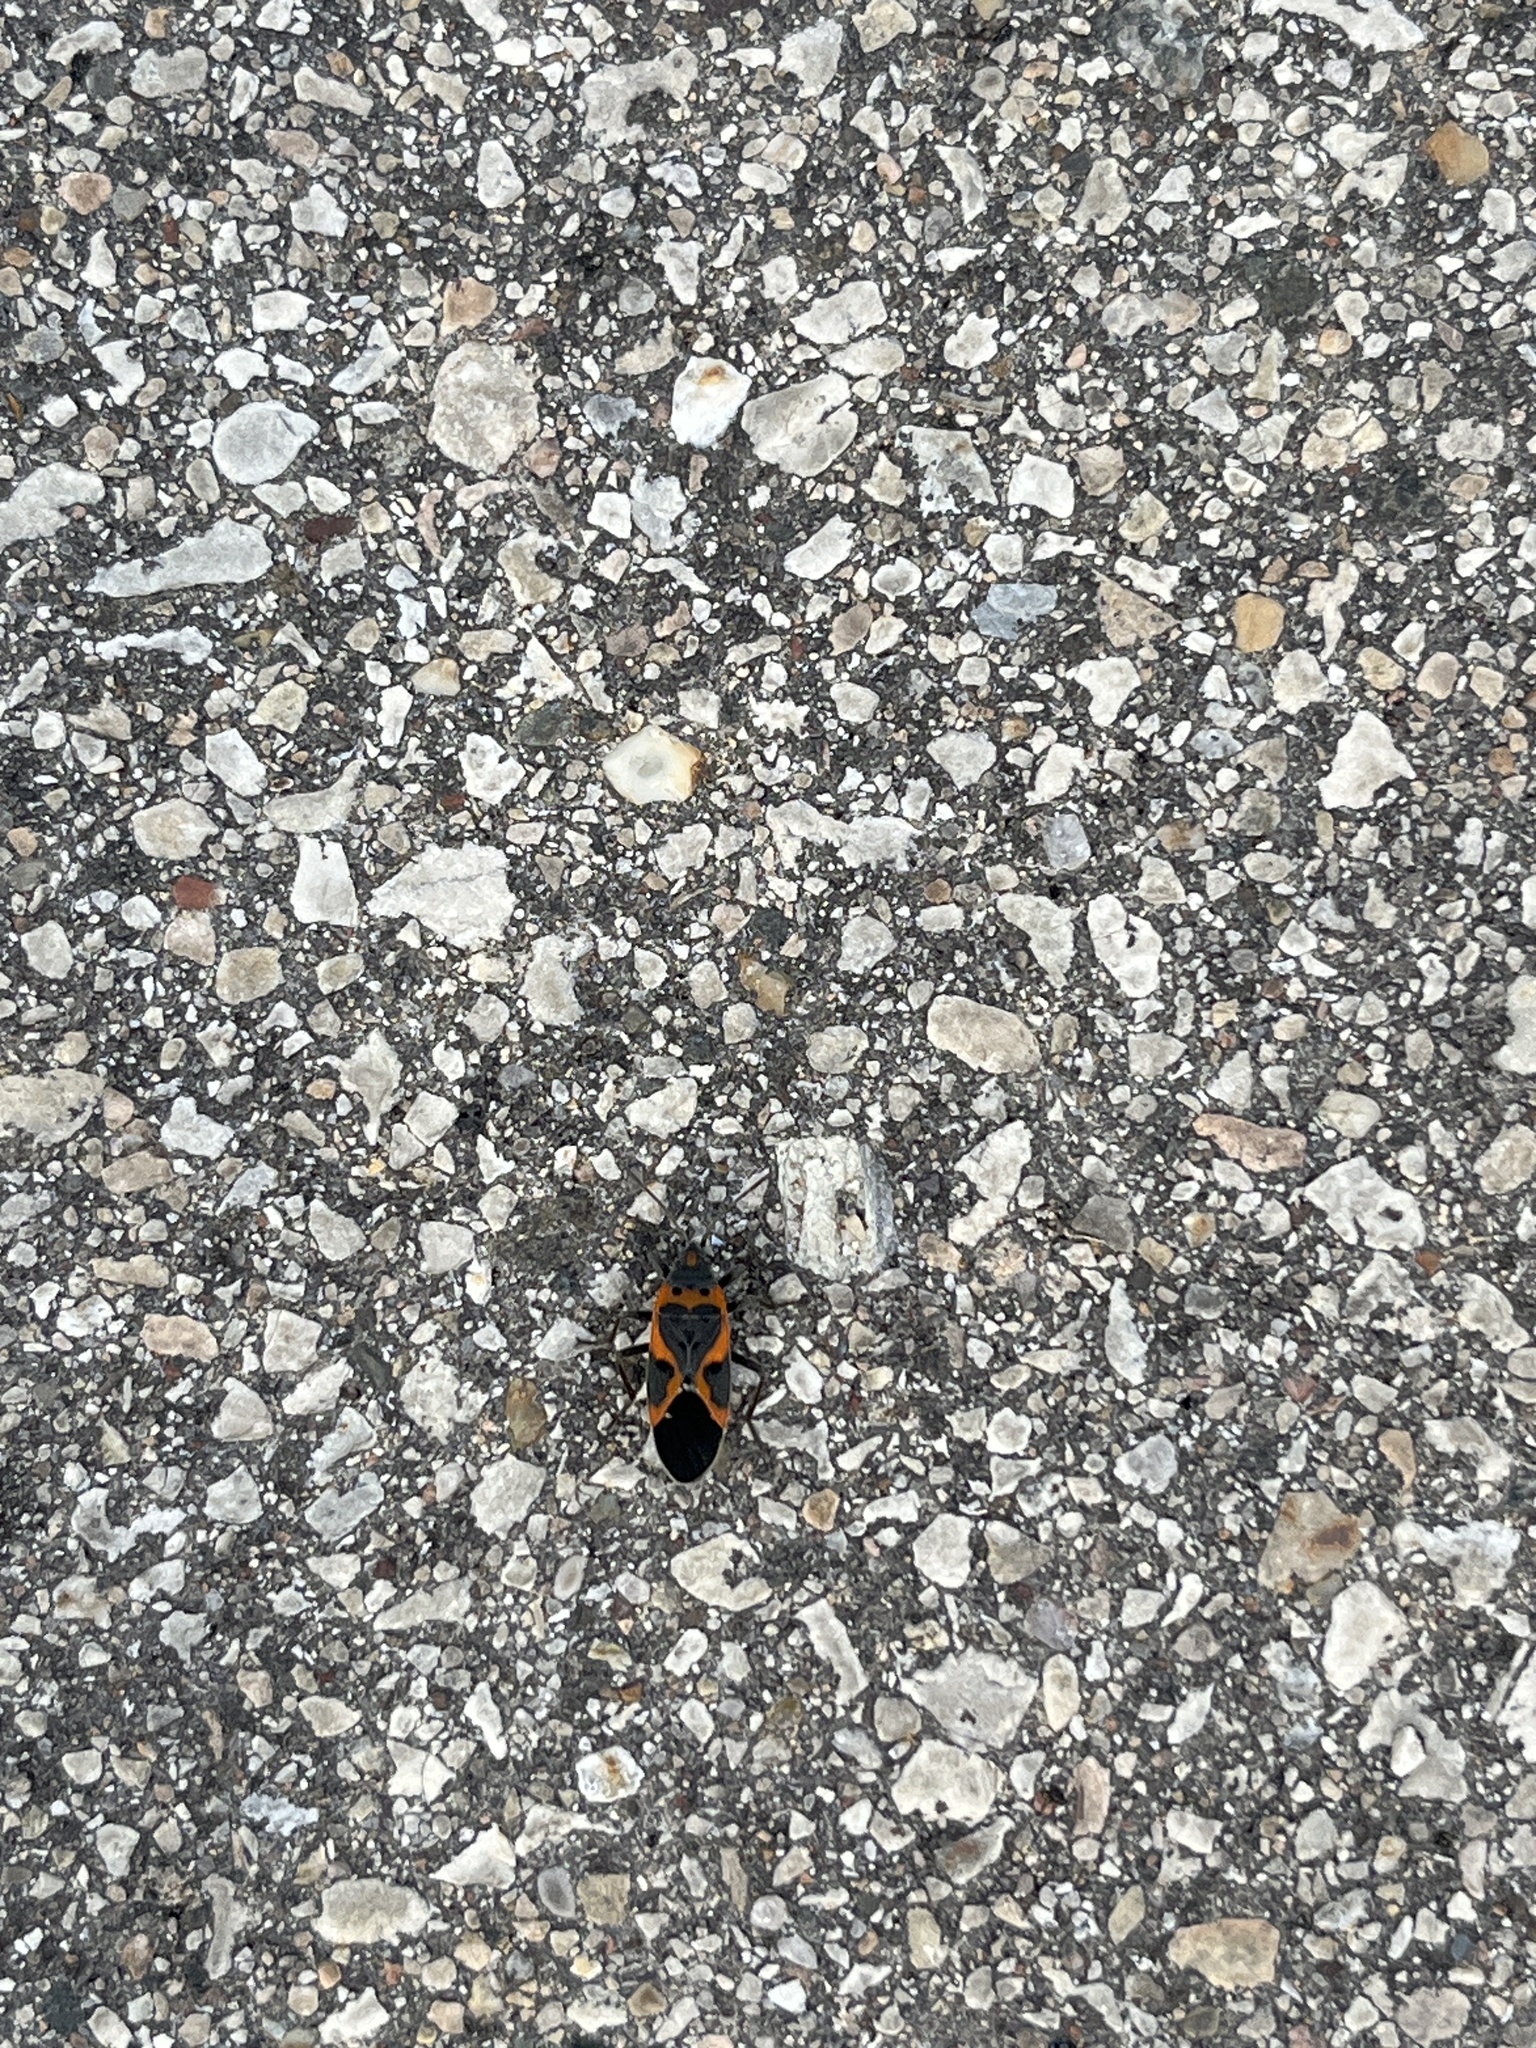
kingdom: Animalia
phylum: Arthropoda
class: Insecta
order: Hemiptera
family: Lygaeidae
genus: Lygaeus
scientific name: Lygaeus kalmii
